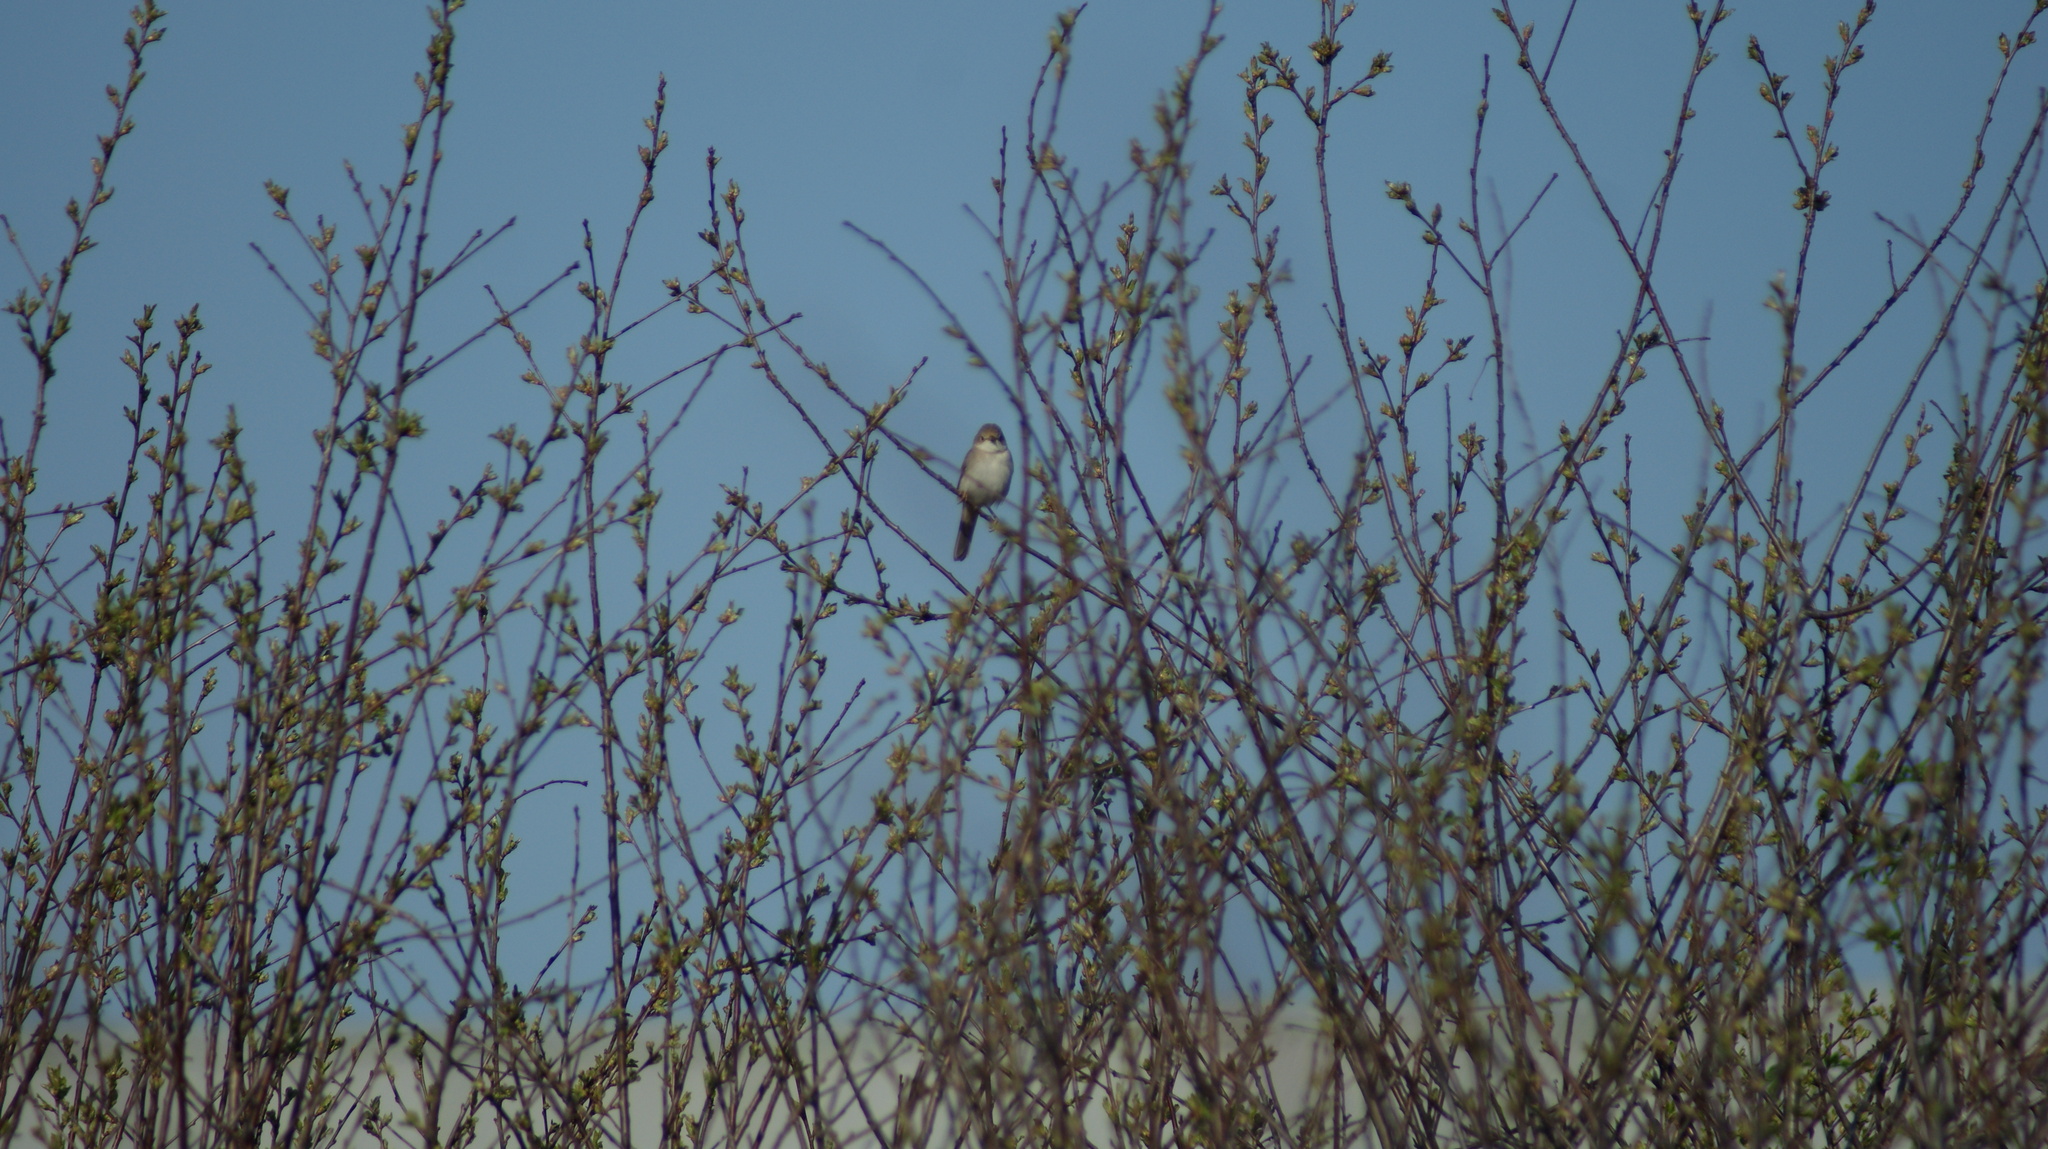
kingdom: Animalia
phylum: Chordata
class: Aves
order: Passeriformes
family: Sylviidae
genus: Sylvia
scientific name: Sylvia communis
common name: Common whitethroat
